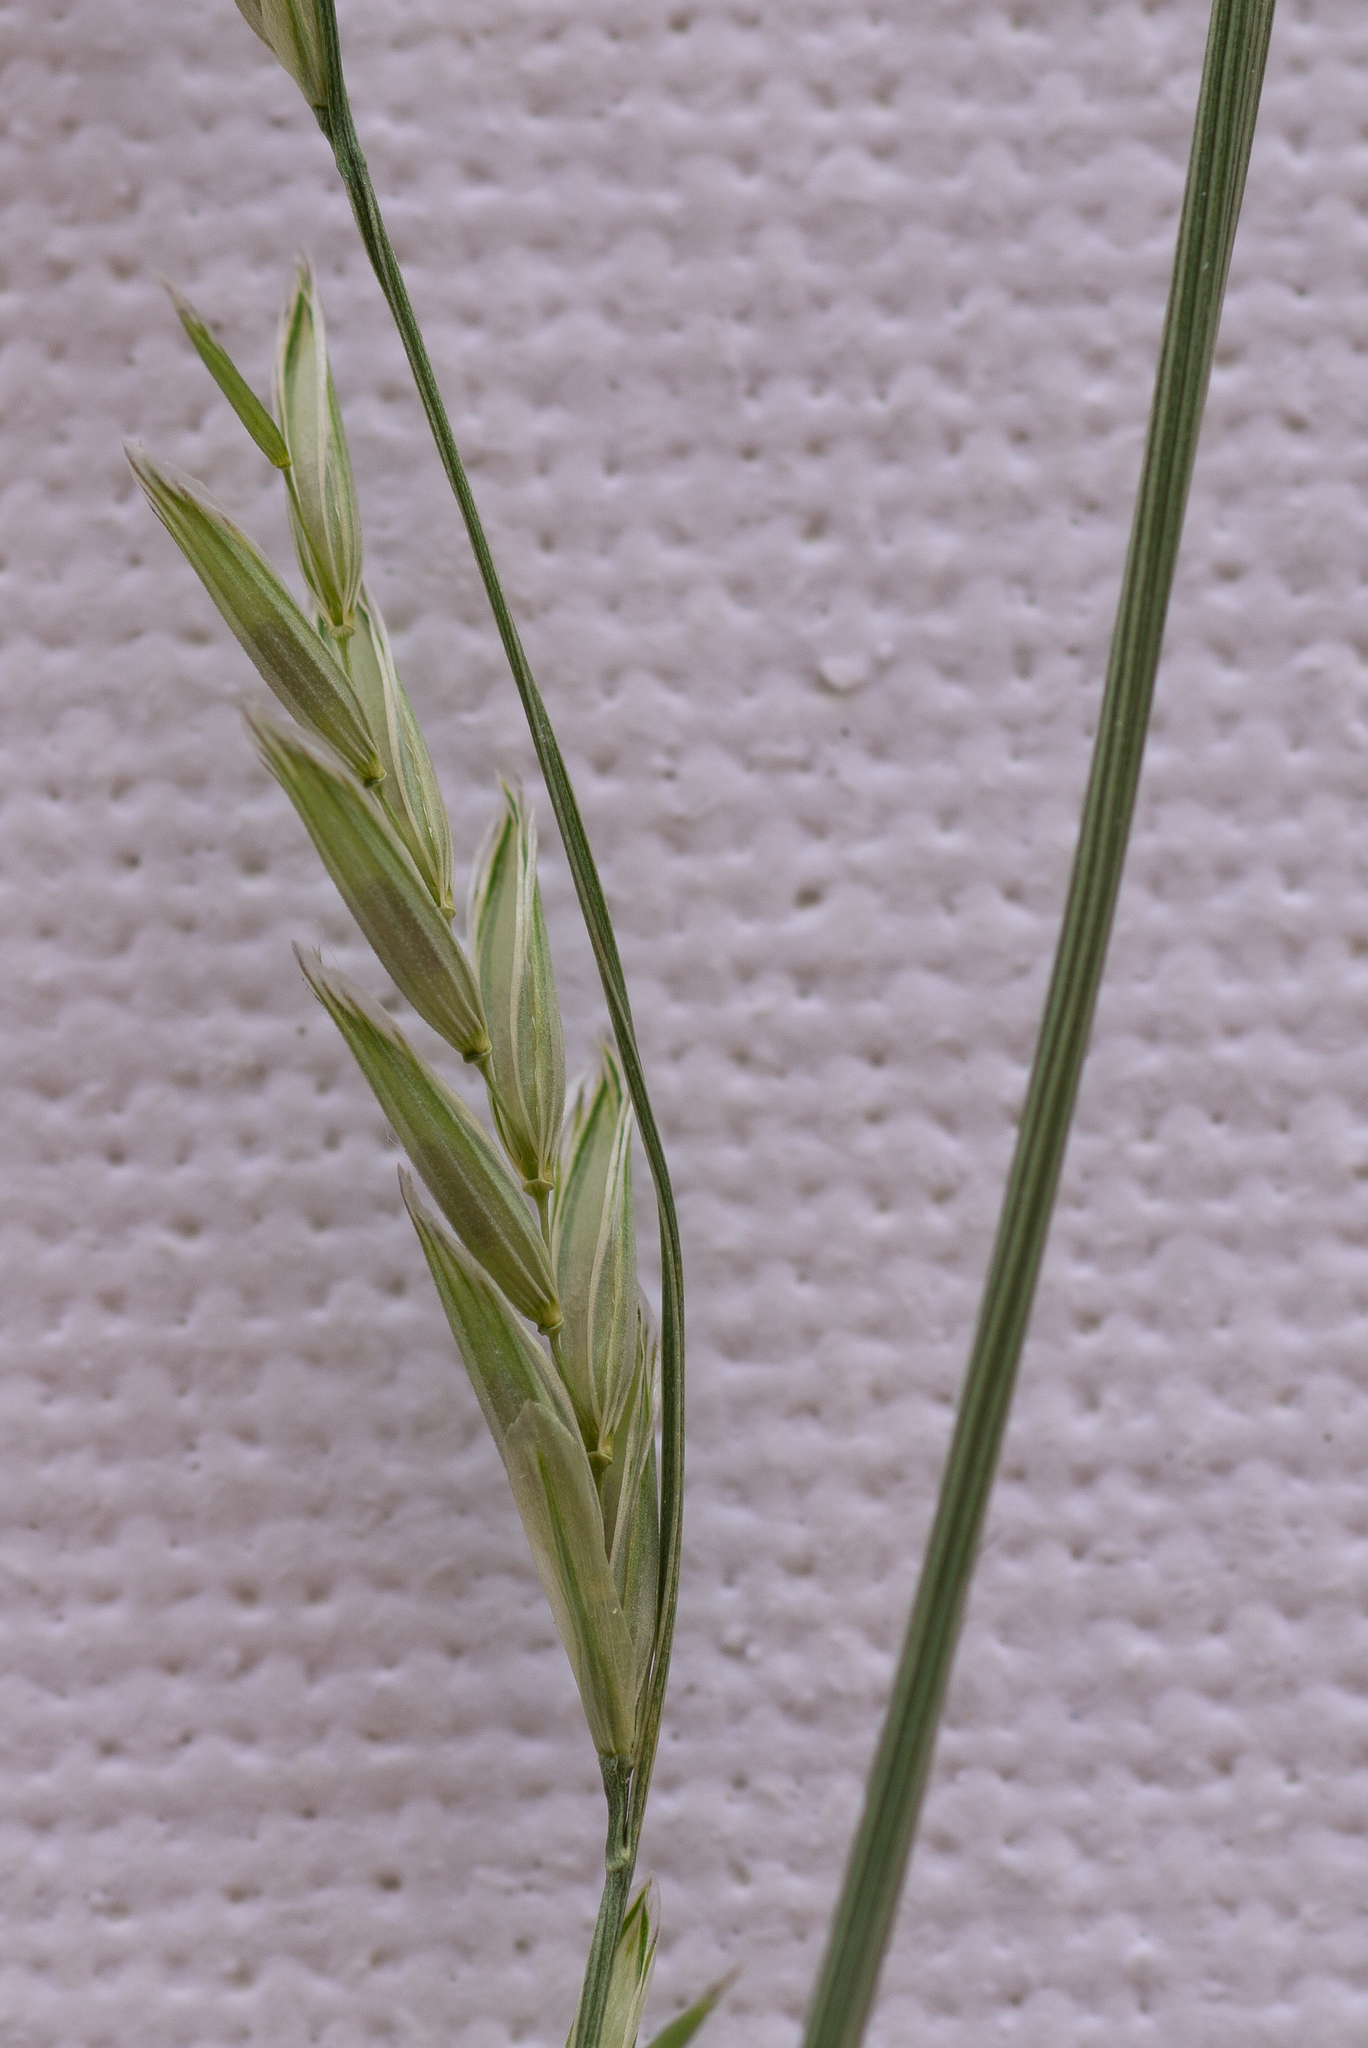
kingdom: Plantae
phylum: Tracheophyta
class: Liliopsida
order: Poales
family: Poaceae
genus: Glyceria
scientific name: Glyceria fluitans
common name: Floating sweet-grass
